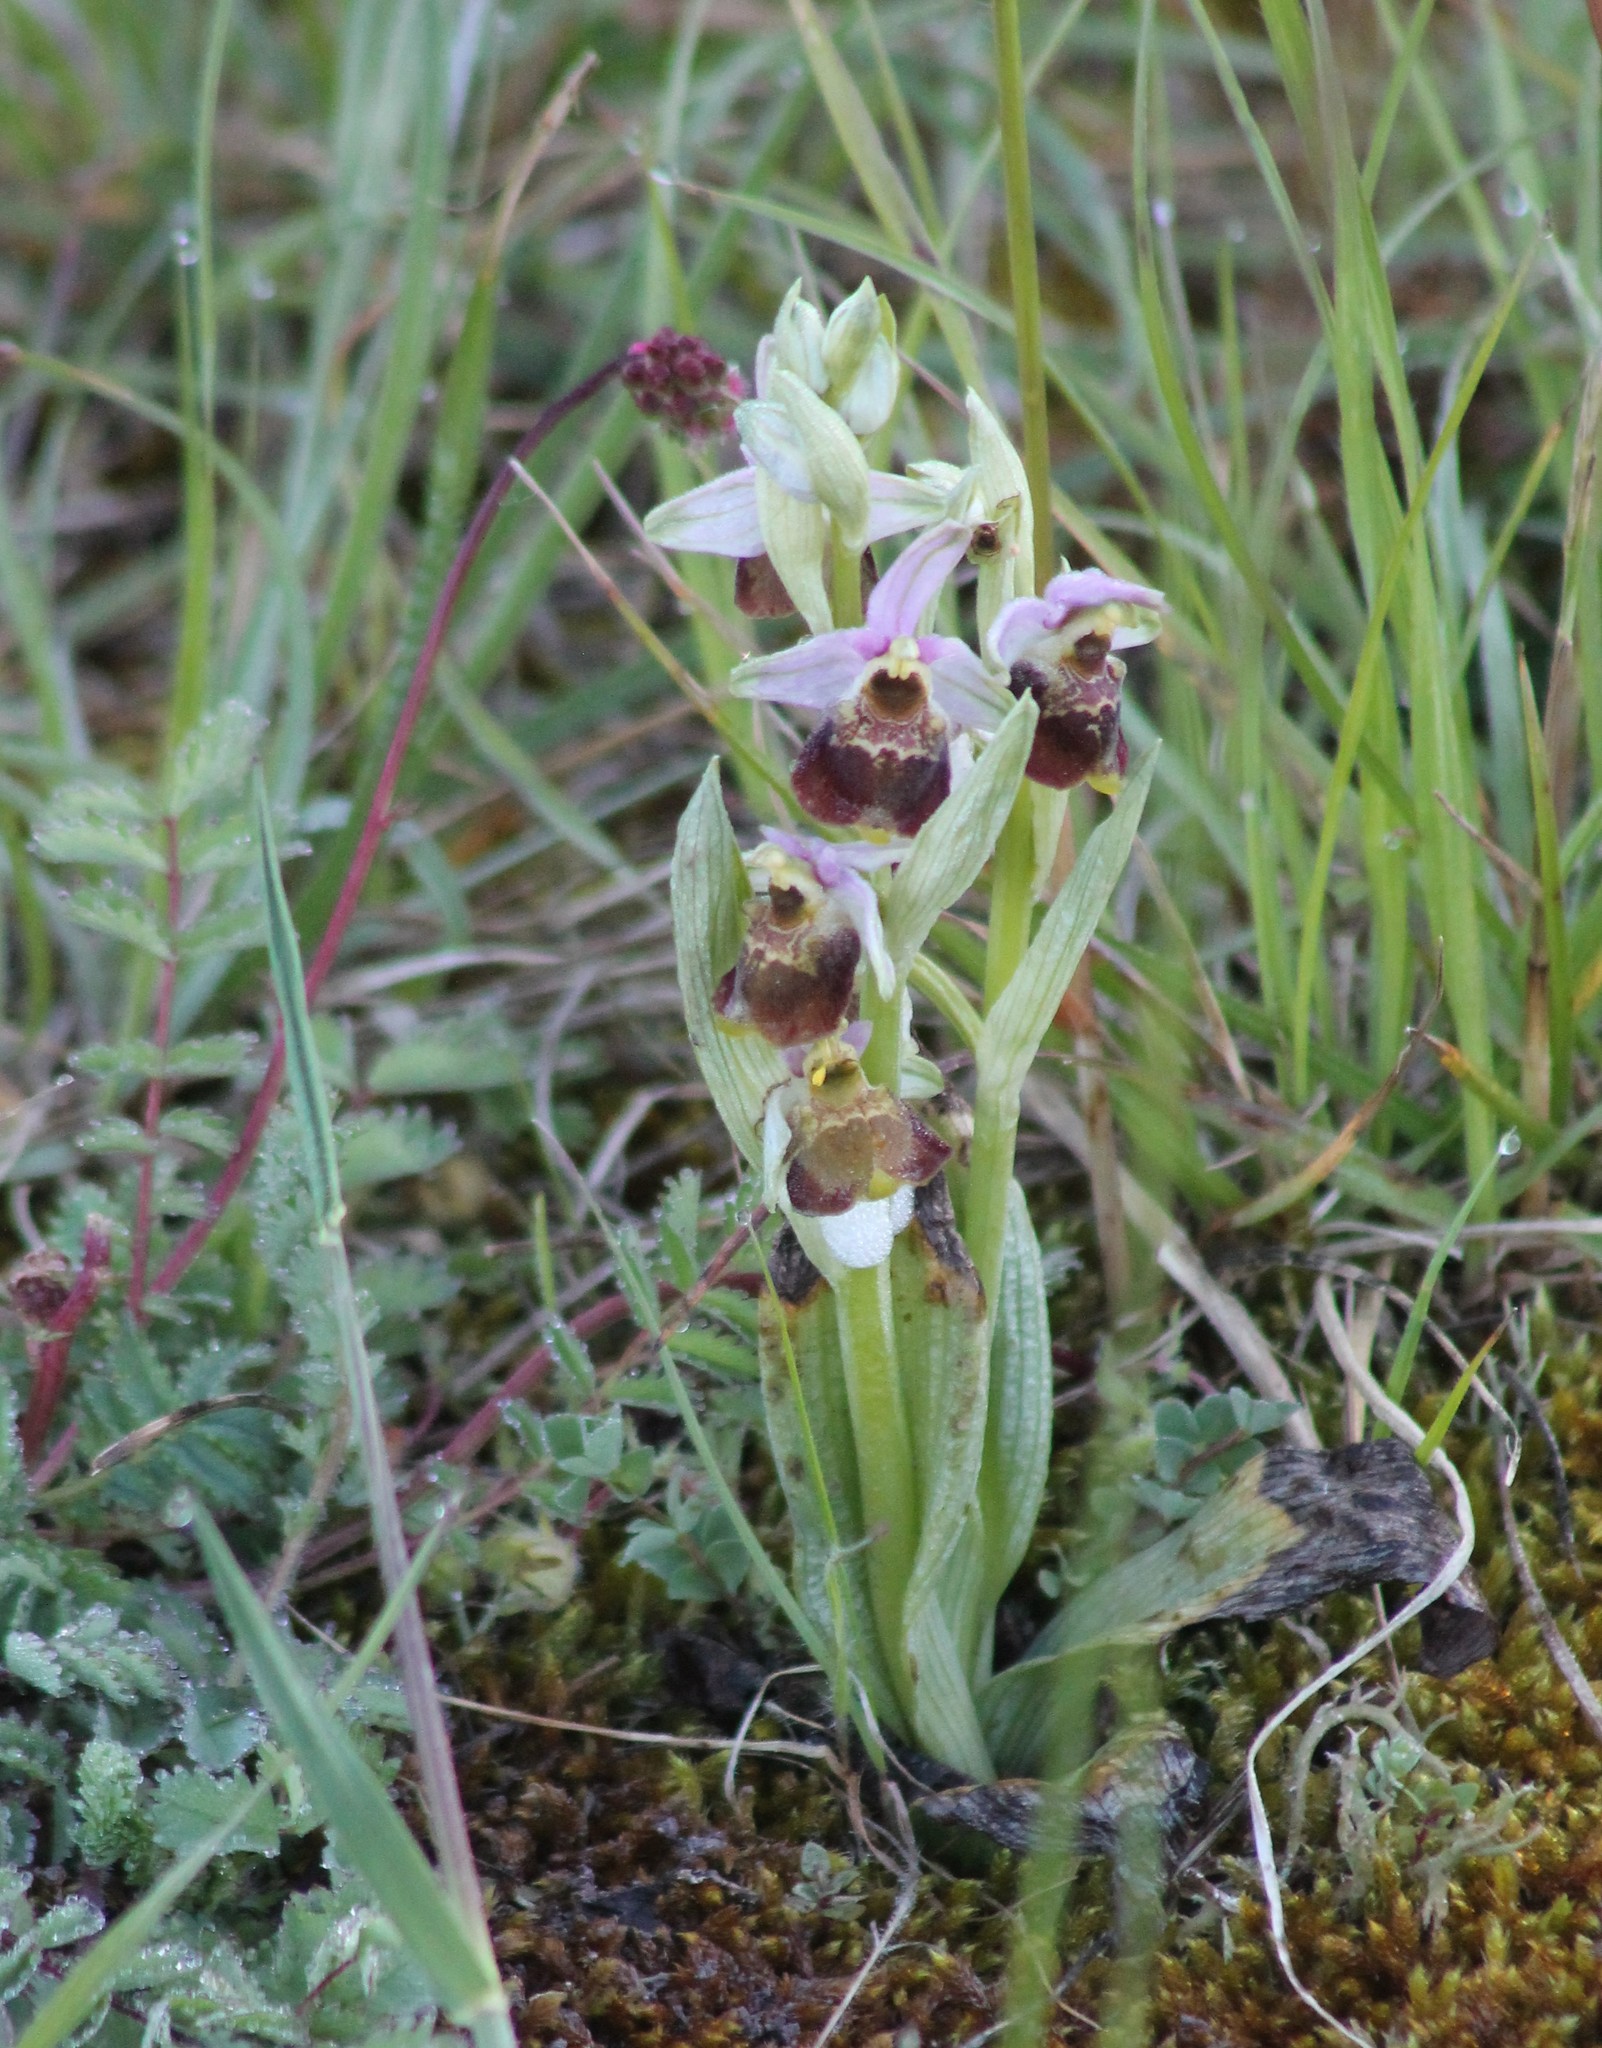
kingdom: Plantae
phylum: Tracheophyta
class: Liliopsida
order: Asparagales
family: Orchidaceae
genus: Ophrys
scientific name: Ophrys holosericea
